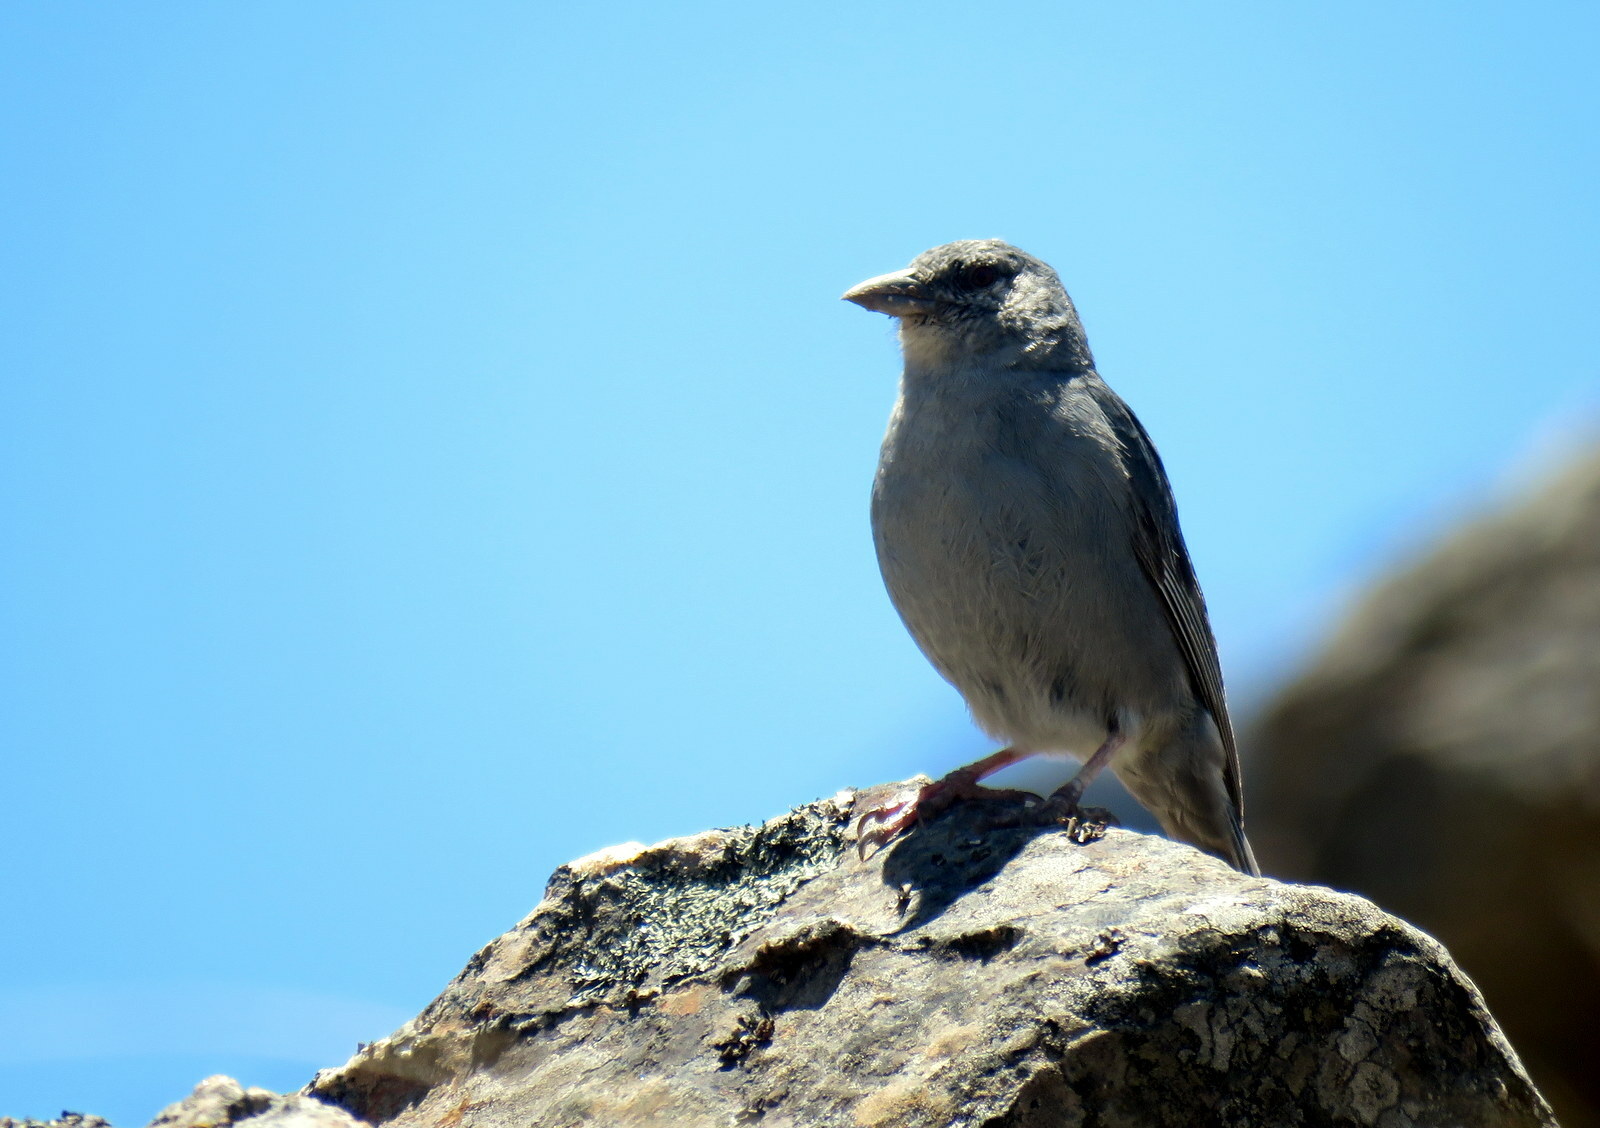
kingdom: Animalia
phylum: Chordata
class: Aves
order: Passeriformes
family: Thraupidae
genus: Idiopsar
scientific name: Idiopsar brachyurus
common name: Short-tailed finch
